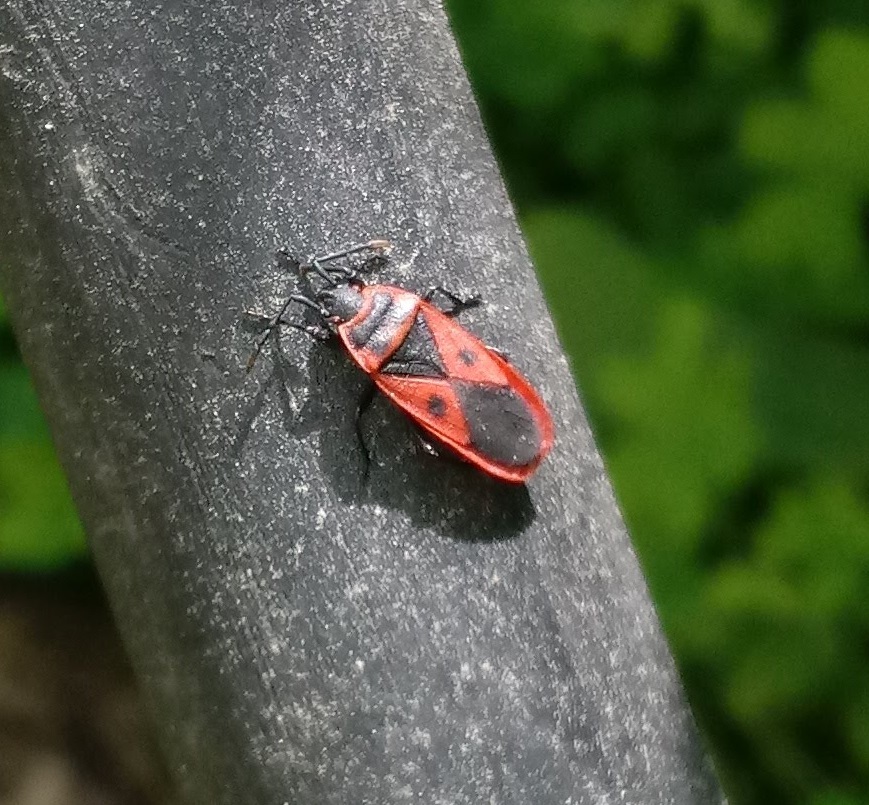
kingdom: Animalia
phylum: Arthropoda
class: Insecta
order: Hemiptera
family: Pyrrhocoridae
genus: Scantius
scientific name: Scantius aegyptius
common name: Red bug
